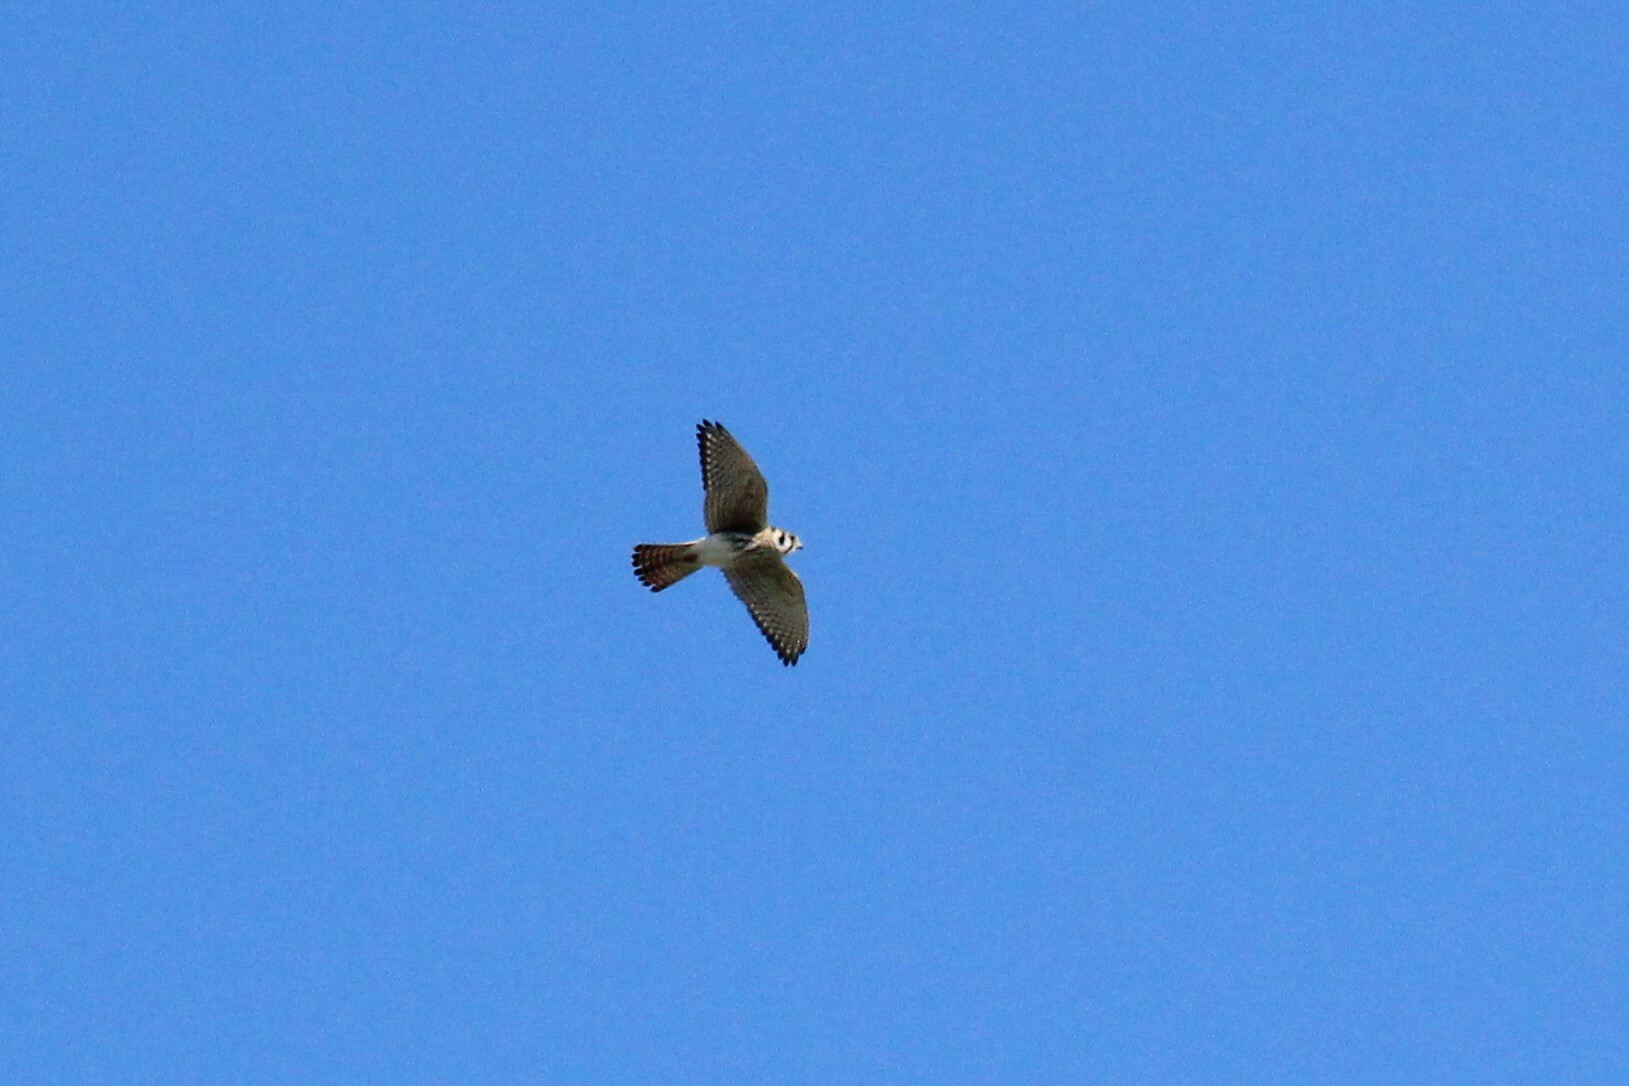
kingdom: Animalia
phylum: Chordata
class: Aves
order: Falconiformes
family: Falconidae
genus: Falco
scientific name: Falco sparverius
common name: American kestrel
